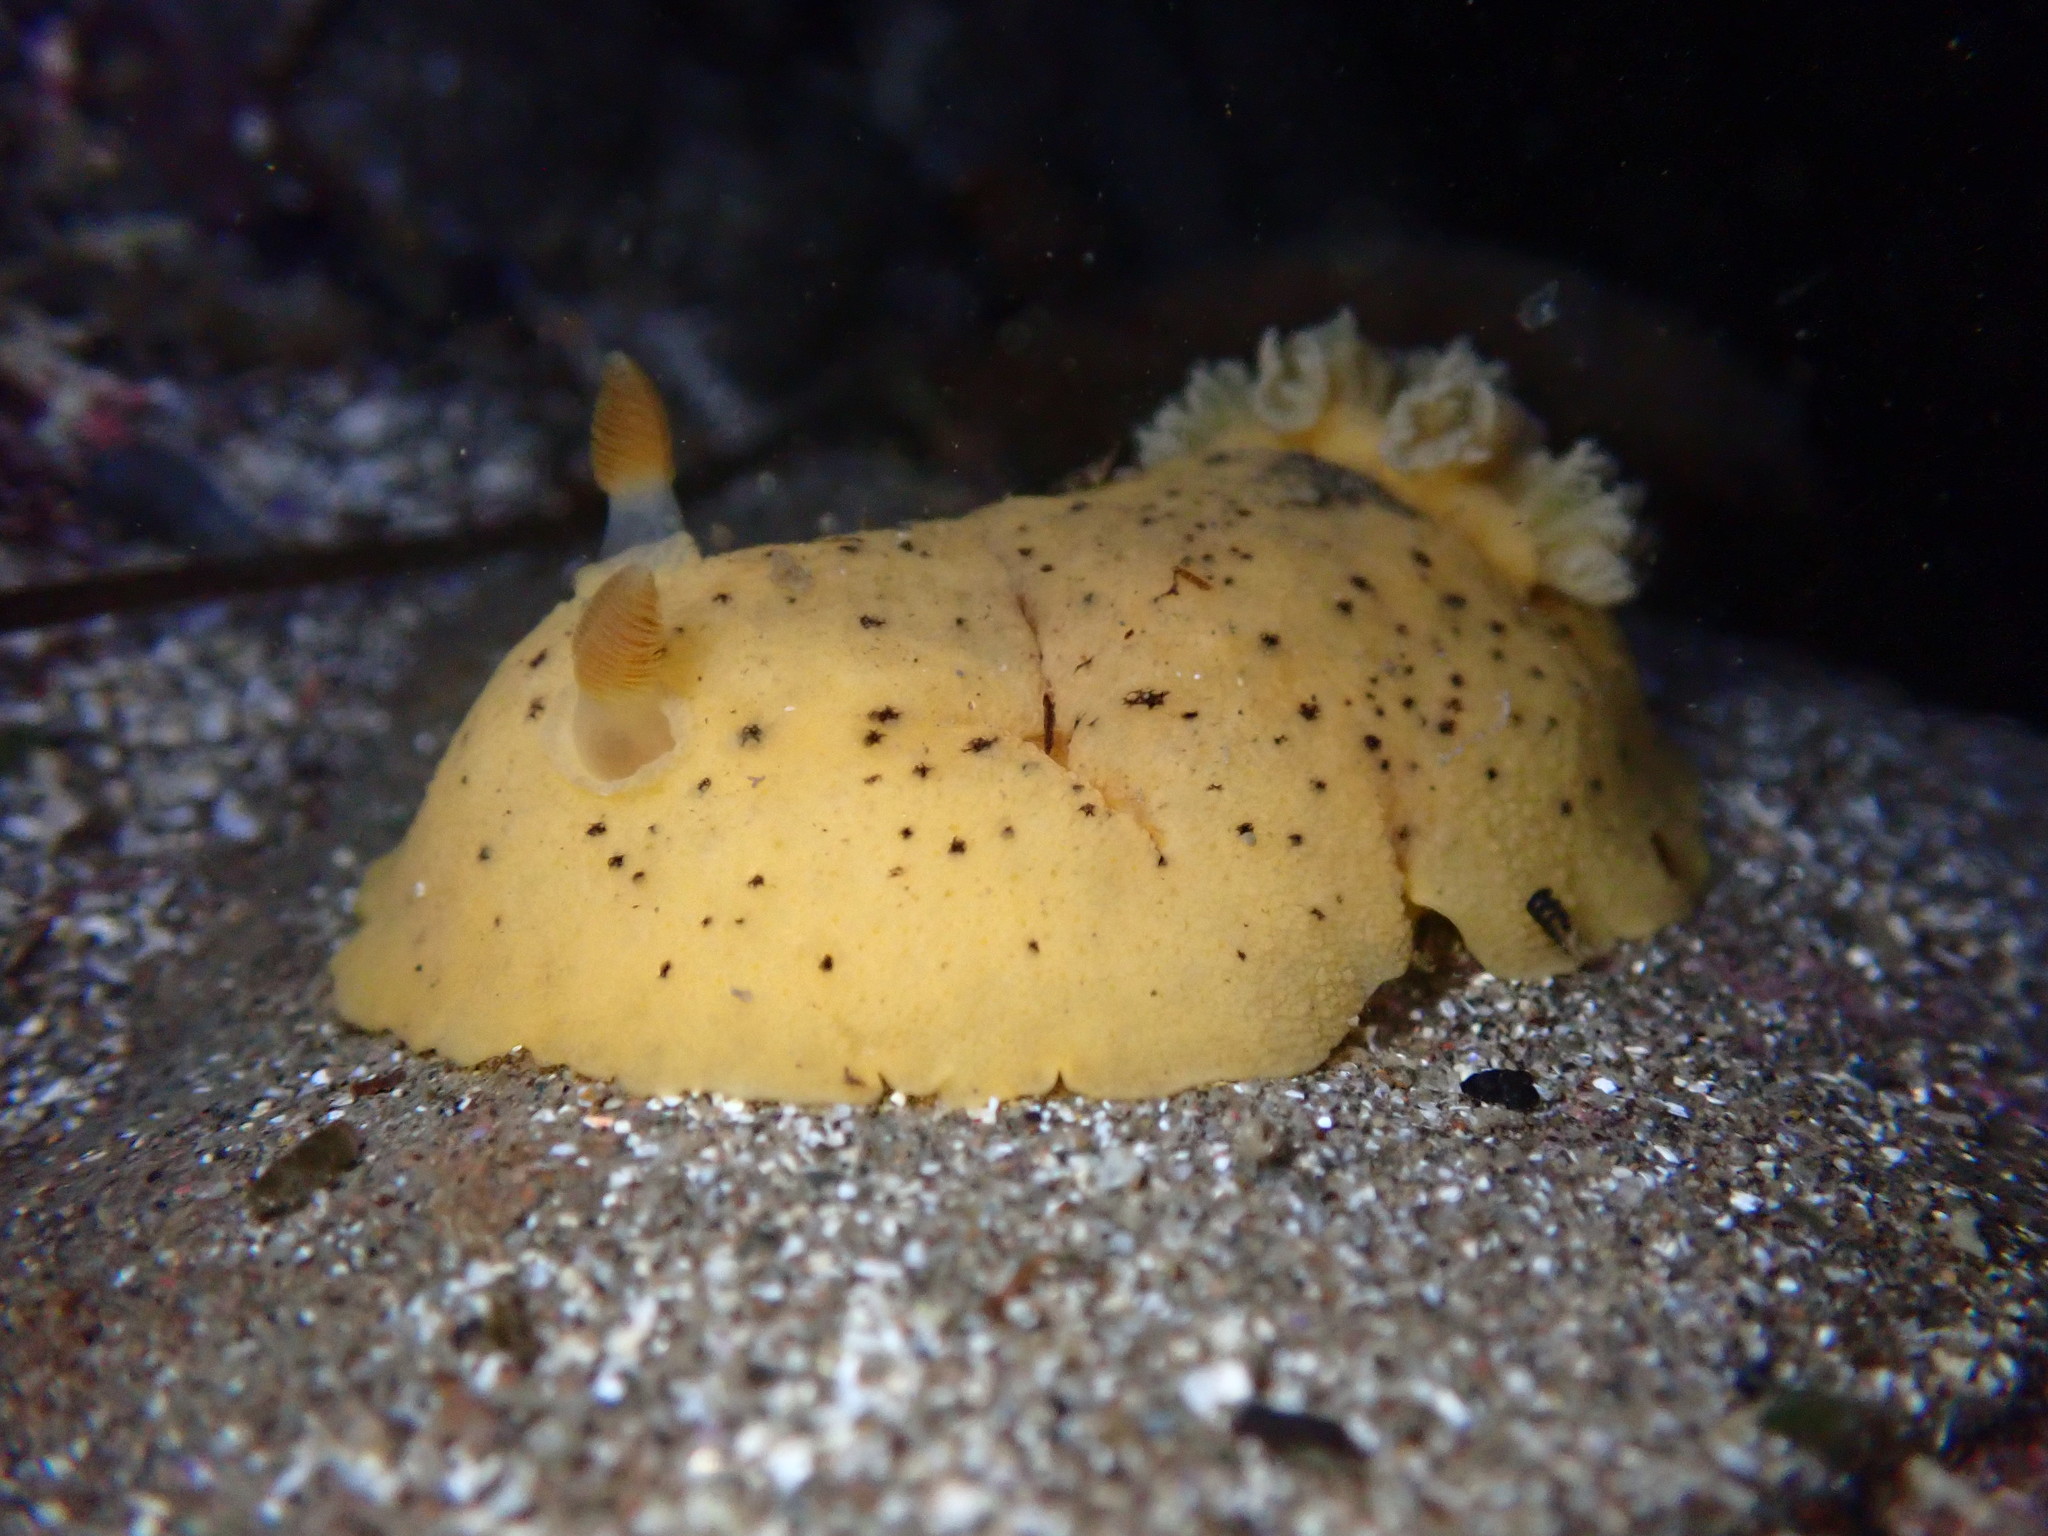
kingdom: Animalia
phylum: Mollusca
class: Gastropoda
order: Nudibranchia
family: Discodorididae
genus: Geitodoris
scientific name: Geitodoris heathi
